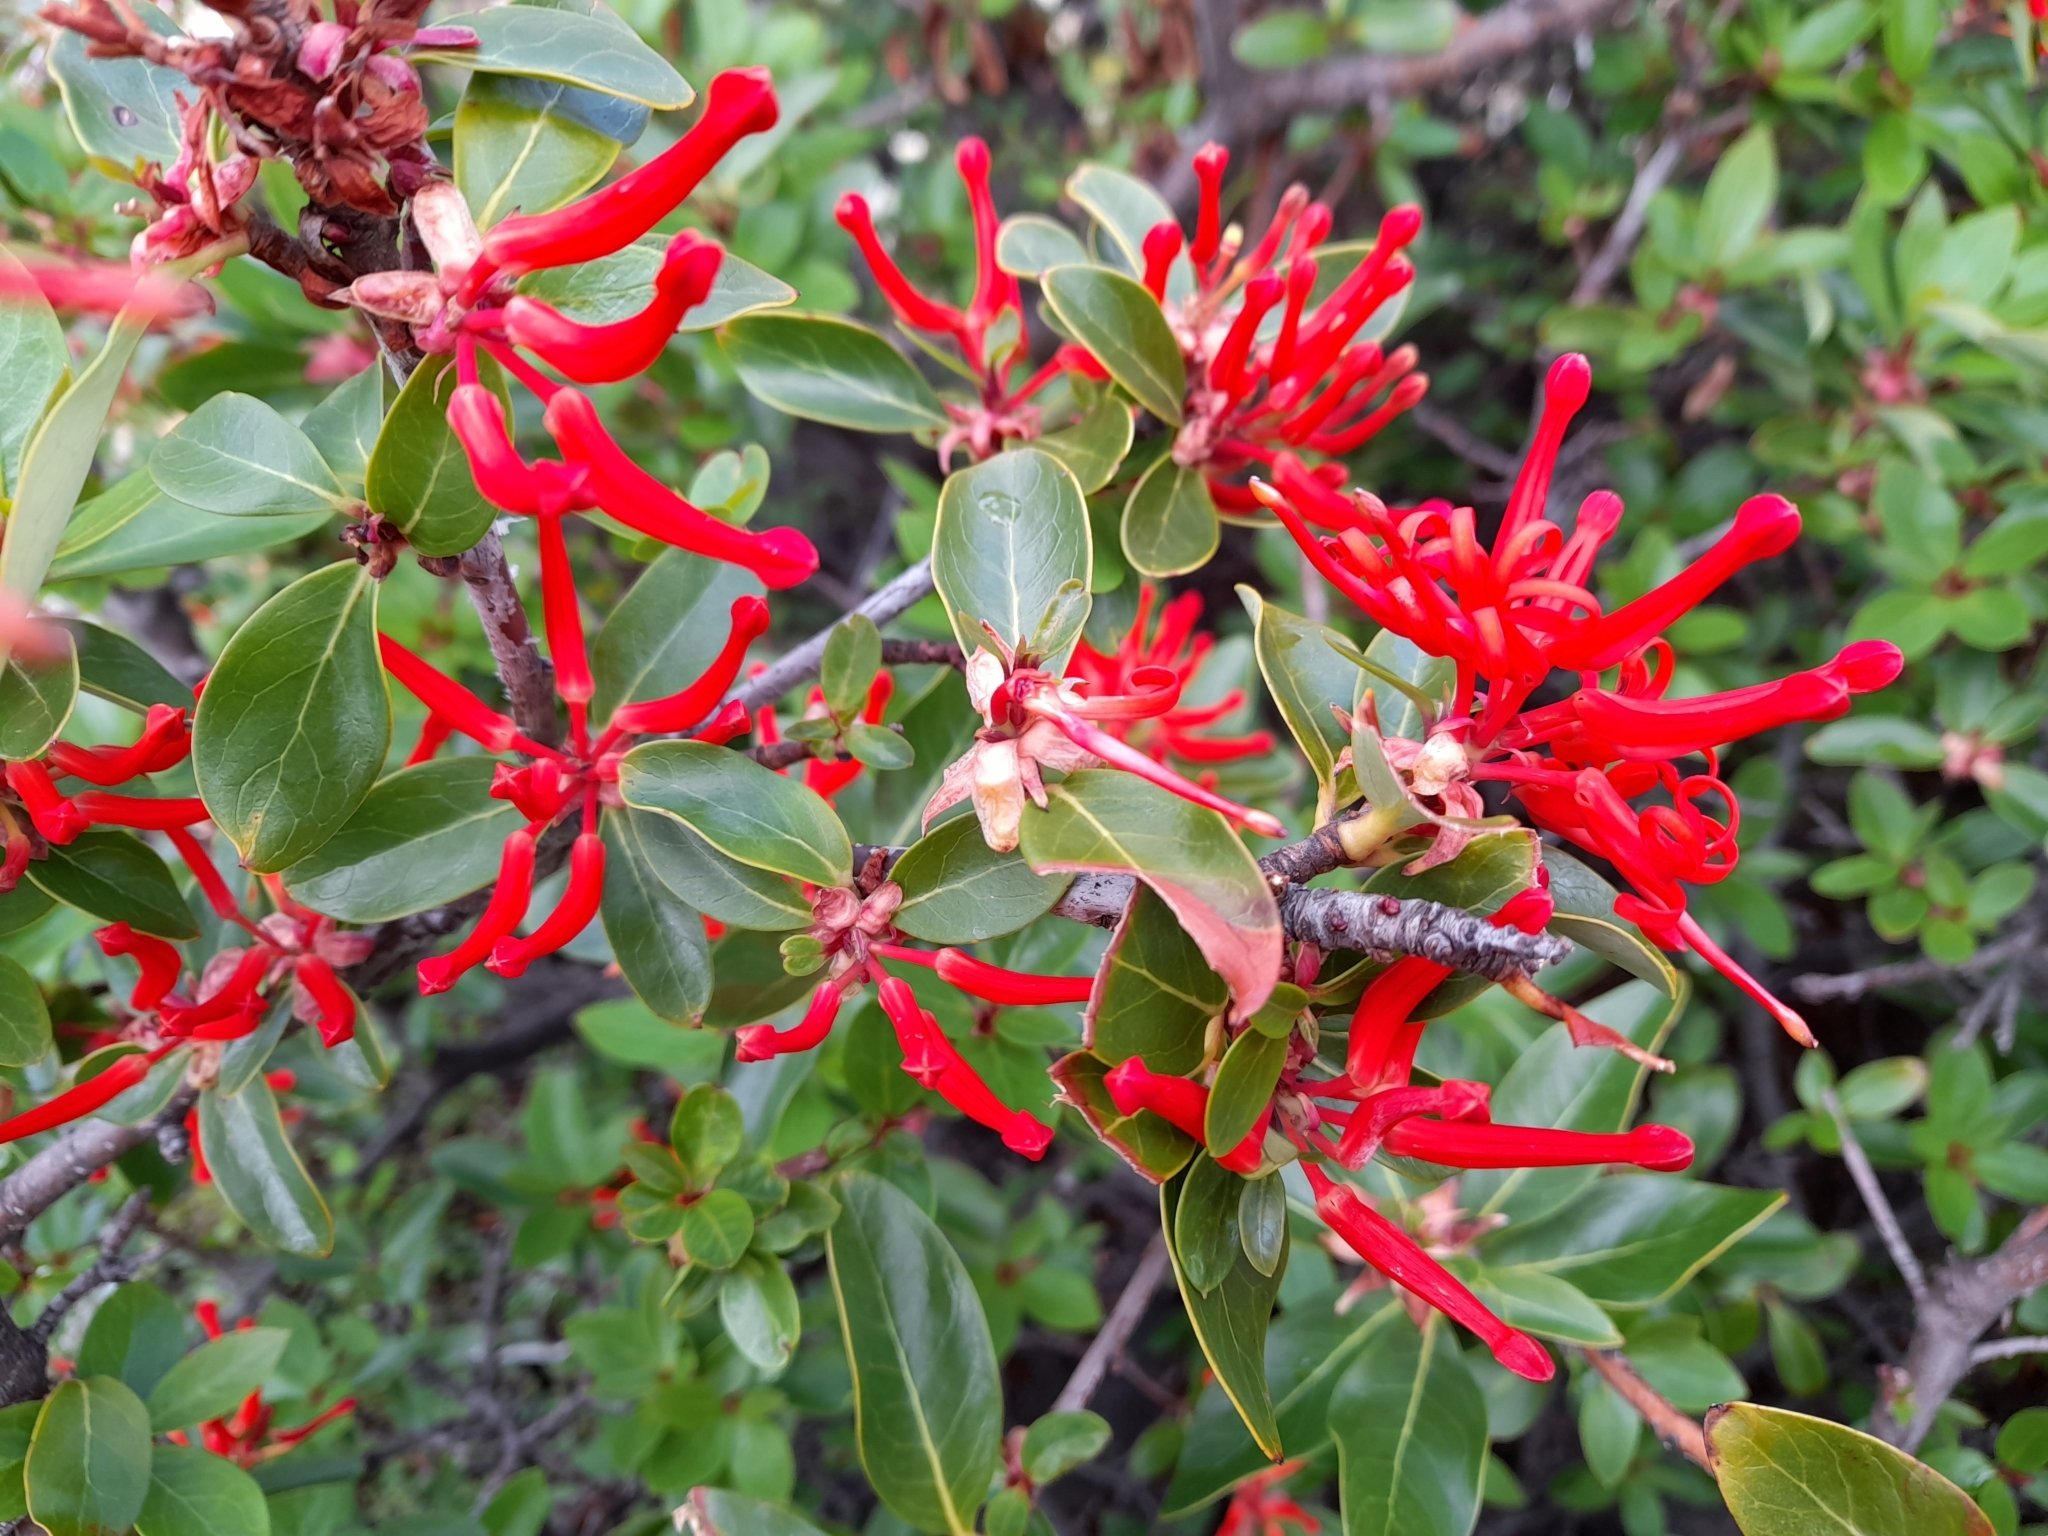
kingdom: Plantae
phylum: Tracheophyta
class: Magnoliopsida
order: Proteales
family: Proteaceae
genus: Embothrium
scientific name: Embothrium coccineum
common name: Chilean firebush
